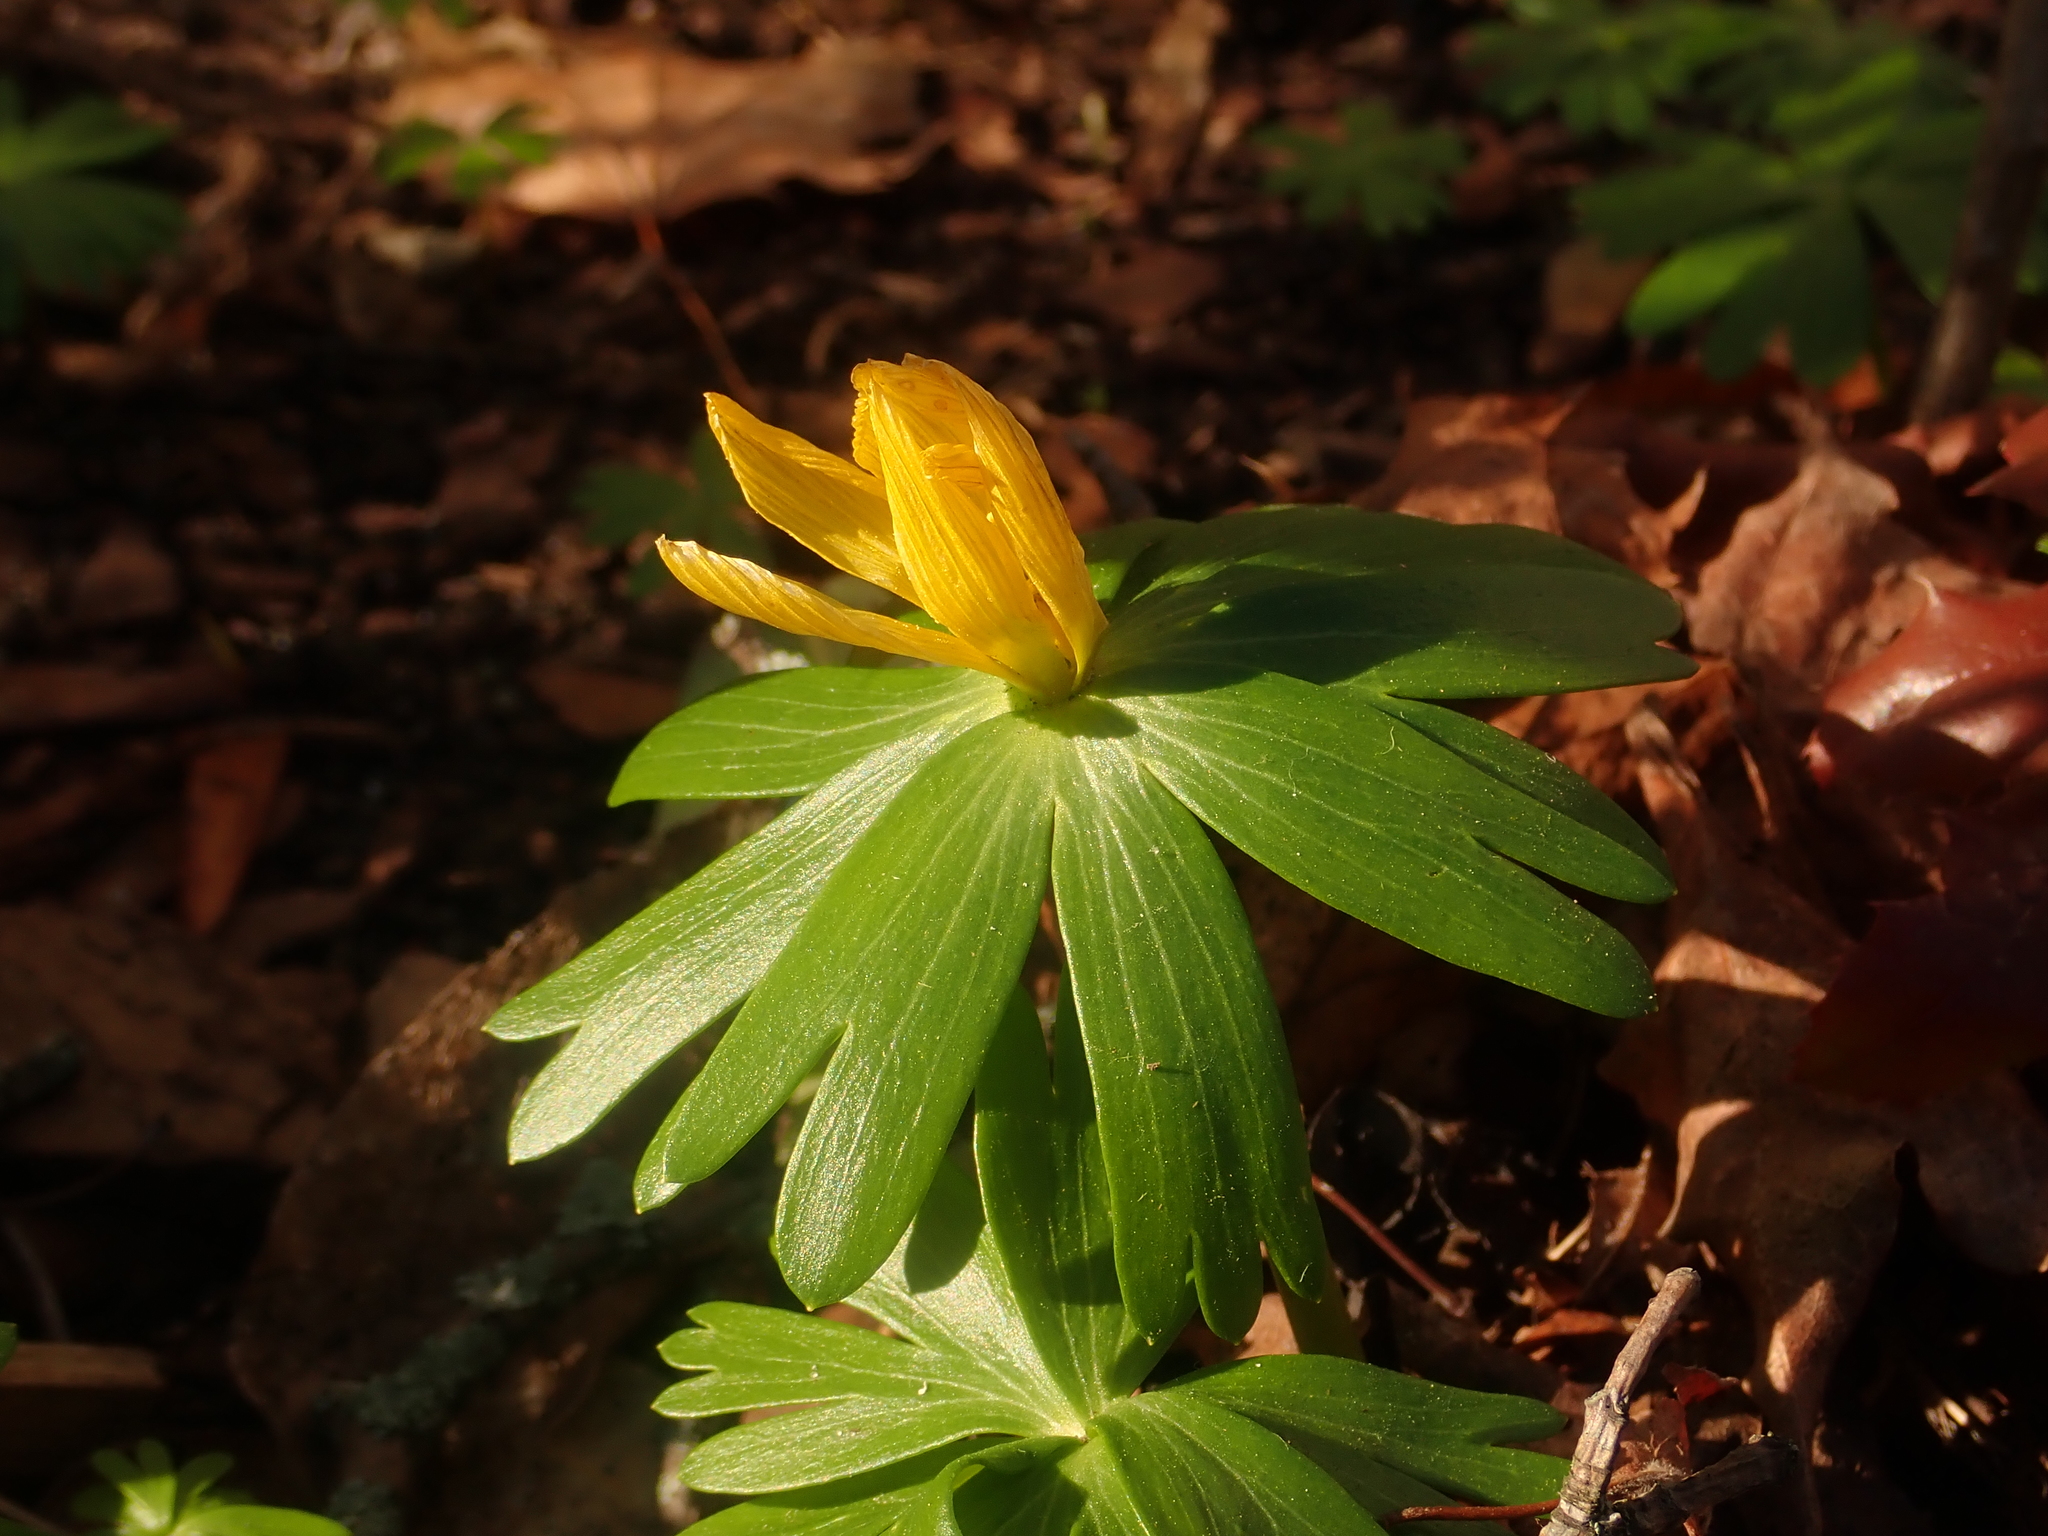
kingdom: Plantae
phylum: Tracheophyta
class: Magnoliopsida
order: Ranunculales
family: Ranunculaceae
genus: Eranthis
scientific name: Eranthis hyemalis
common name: Winter aconite
